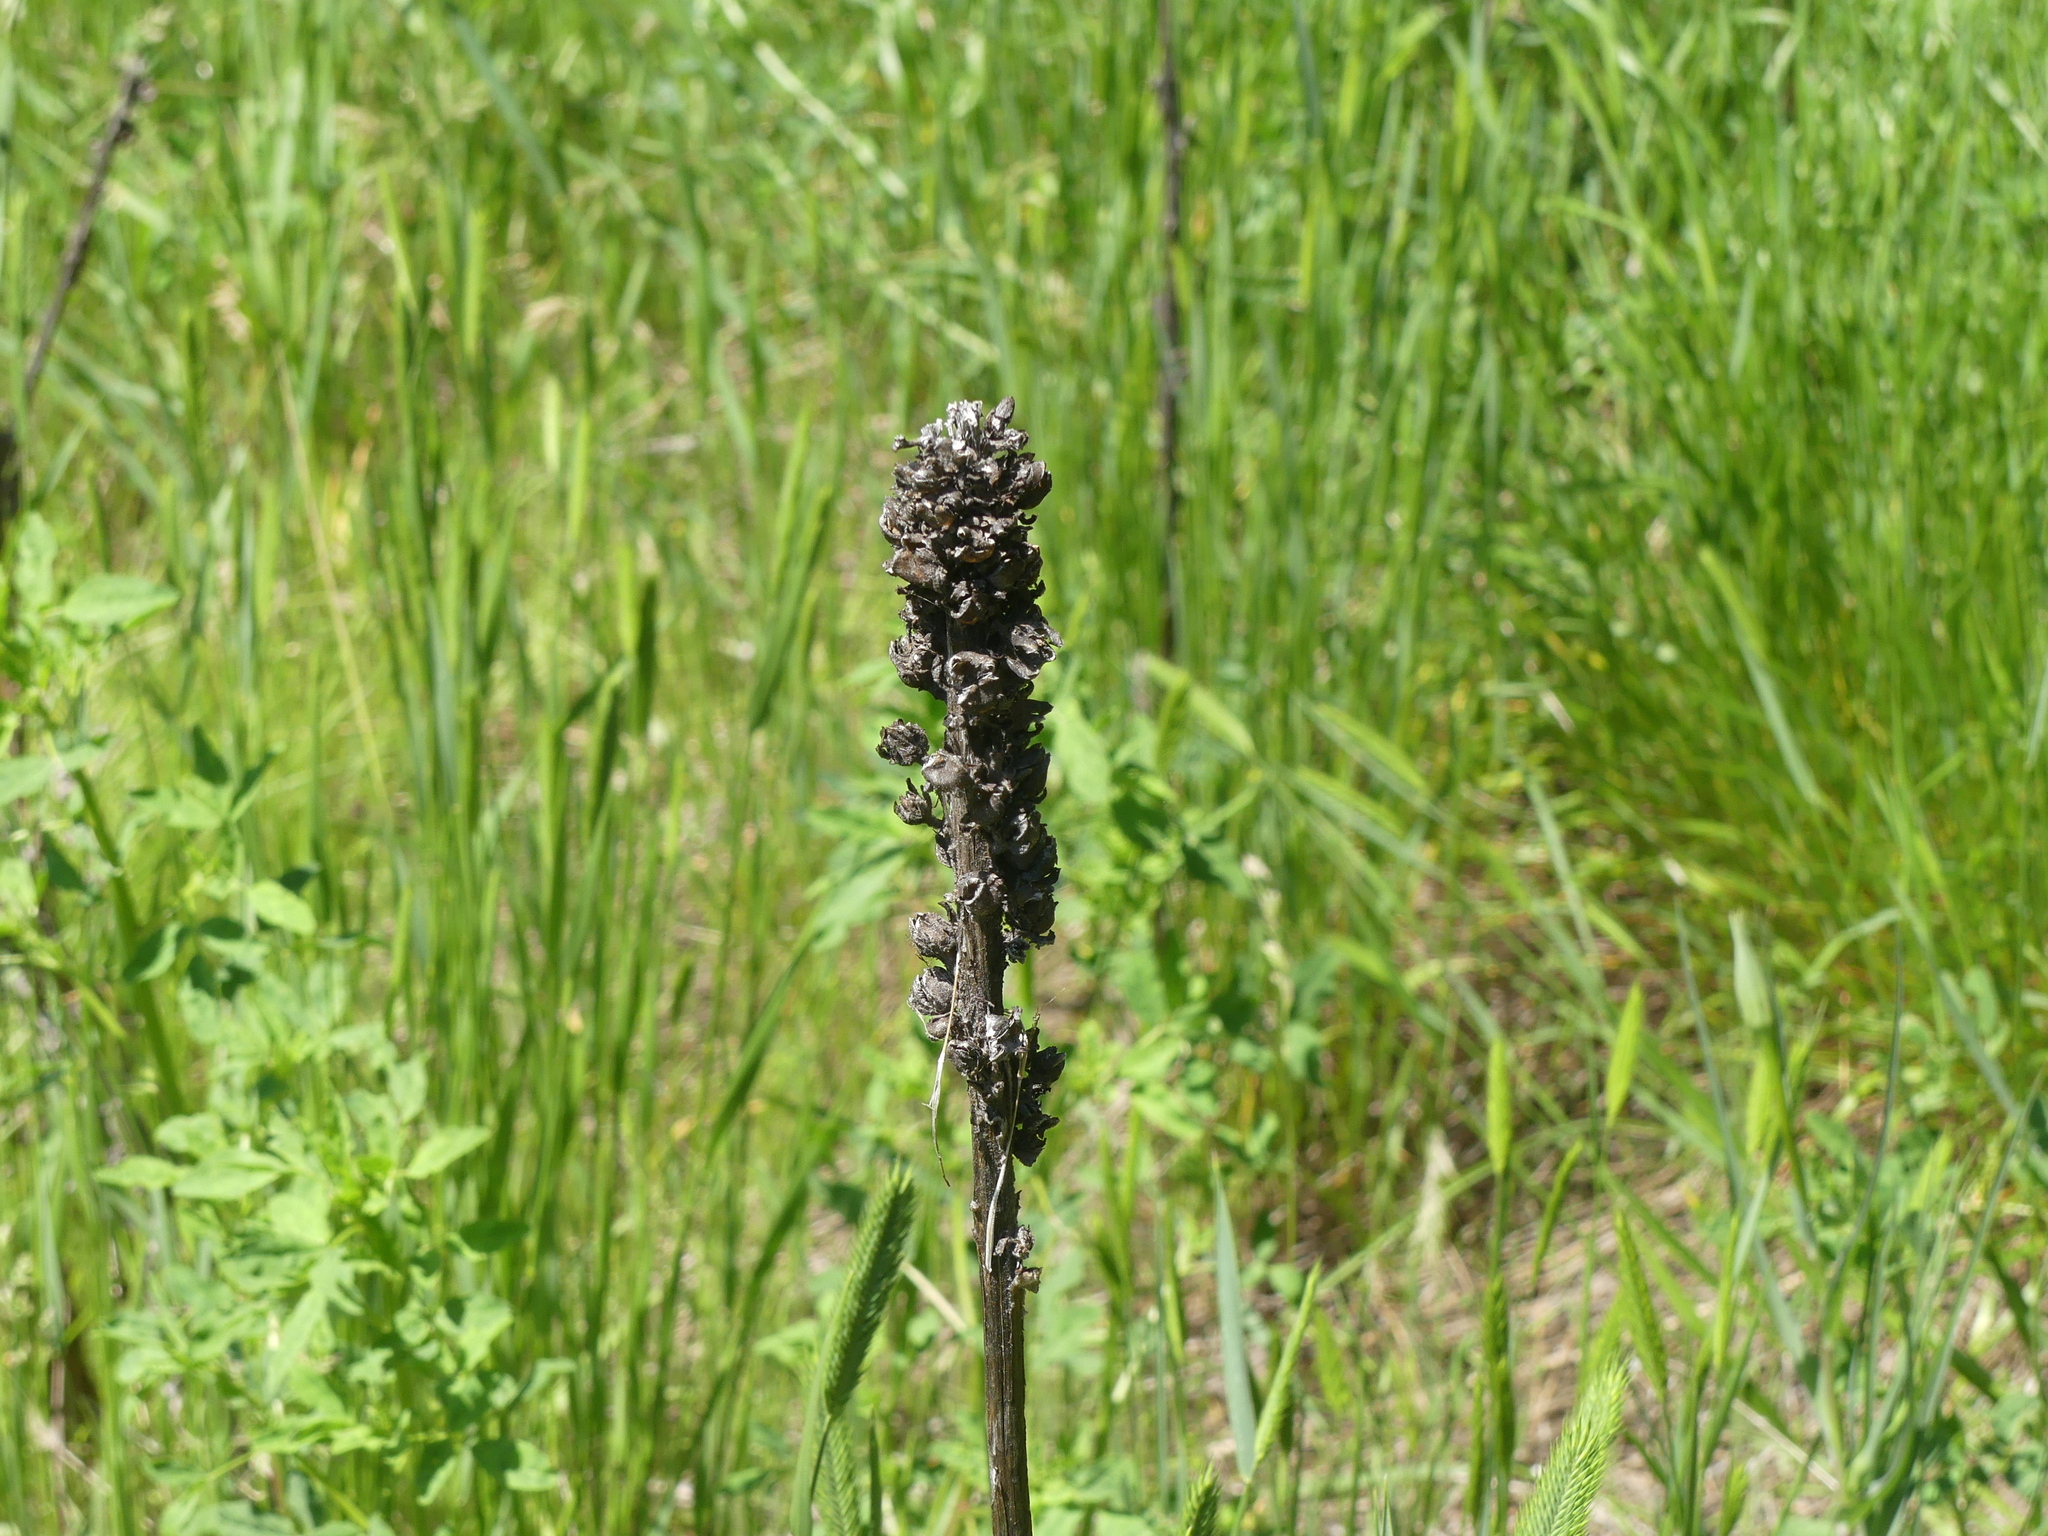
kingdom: Plantae
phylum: Tracheophyta
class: Magnoliopsida
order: Lamiales
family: Scrophulariaceae
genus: Verbascum
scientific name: Verbascum thapsus
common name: Common mullein
